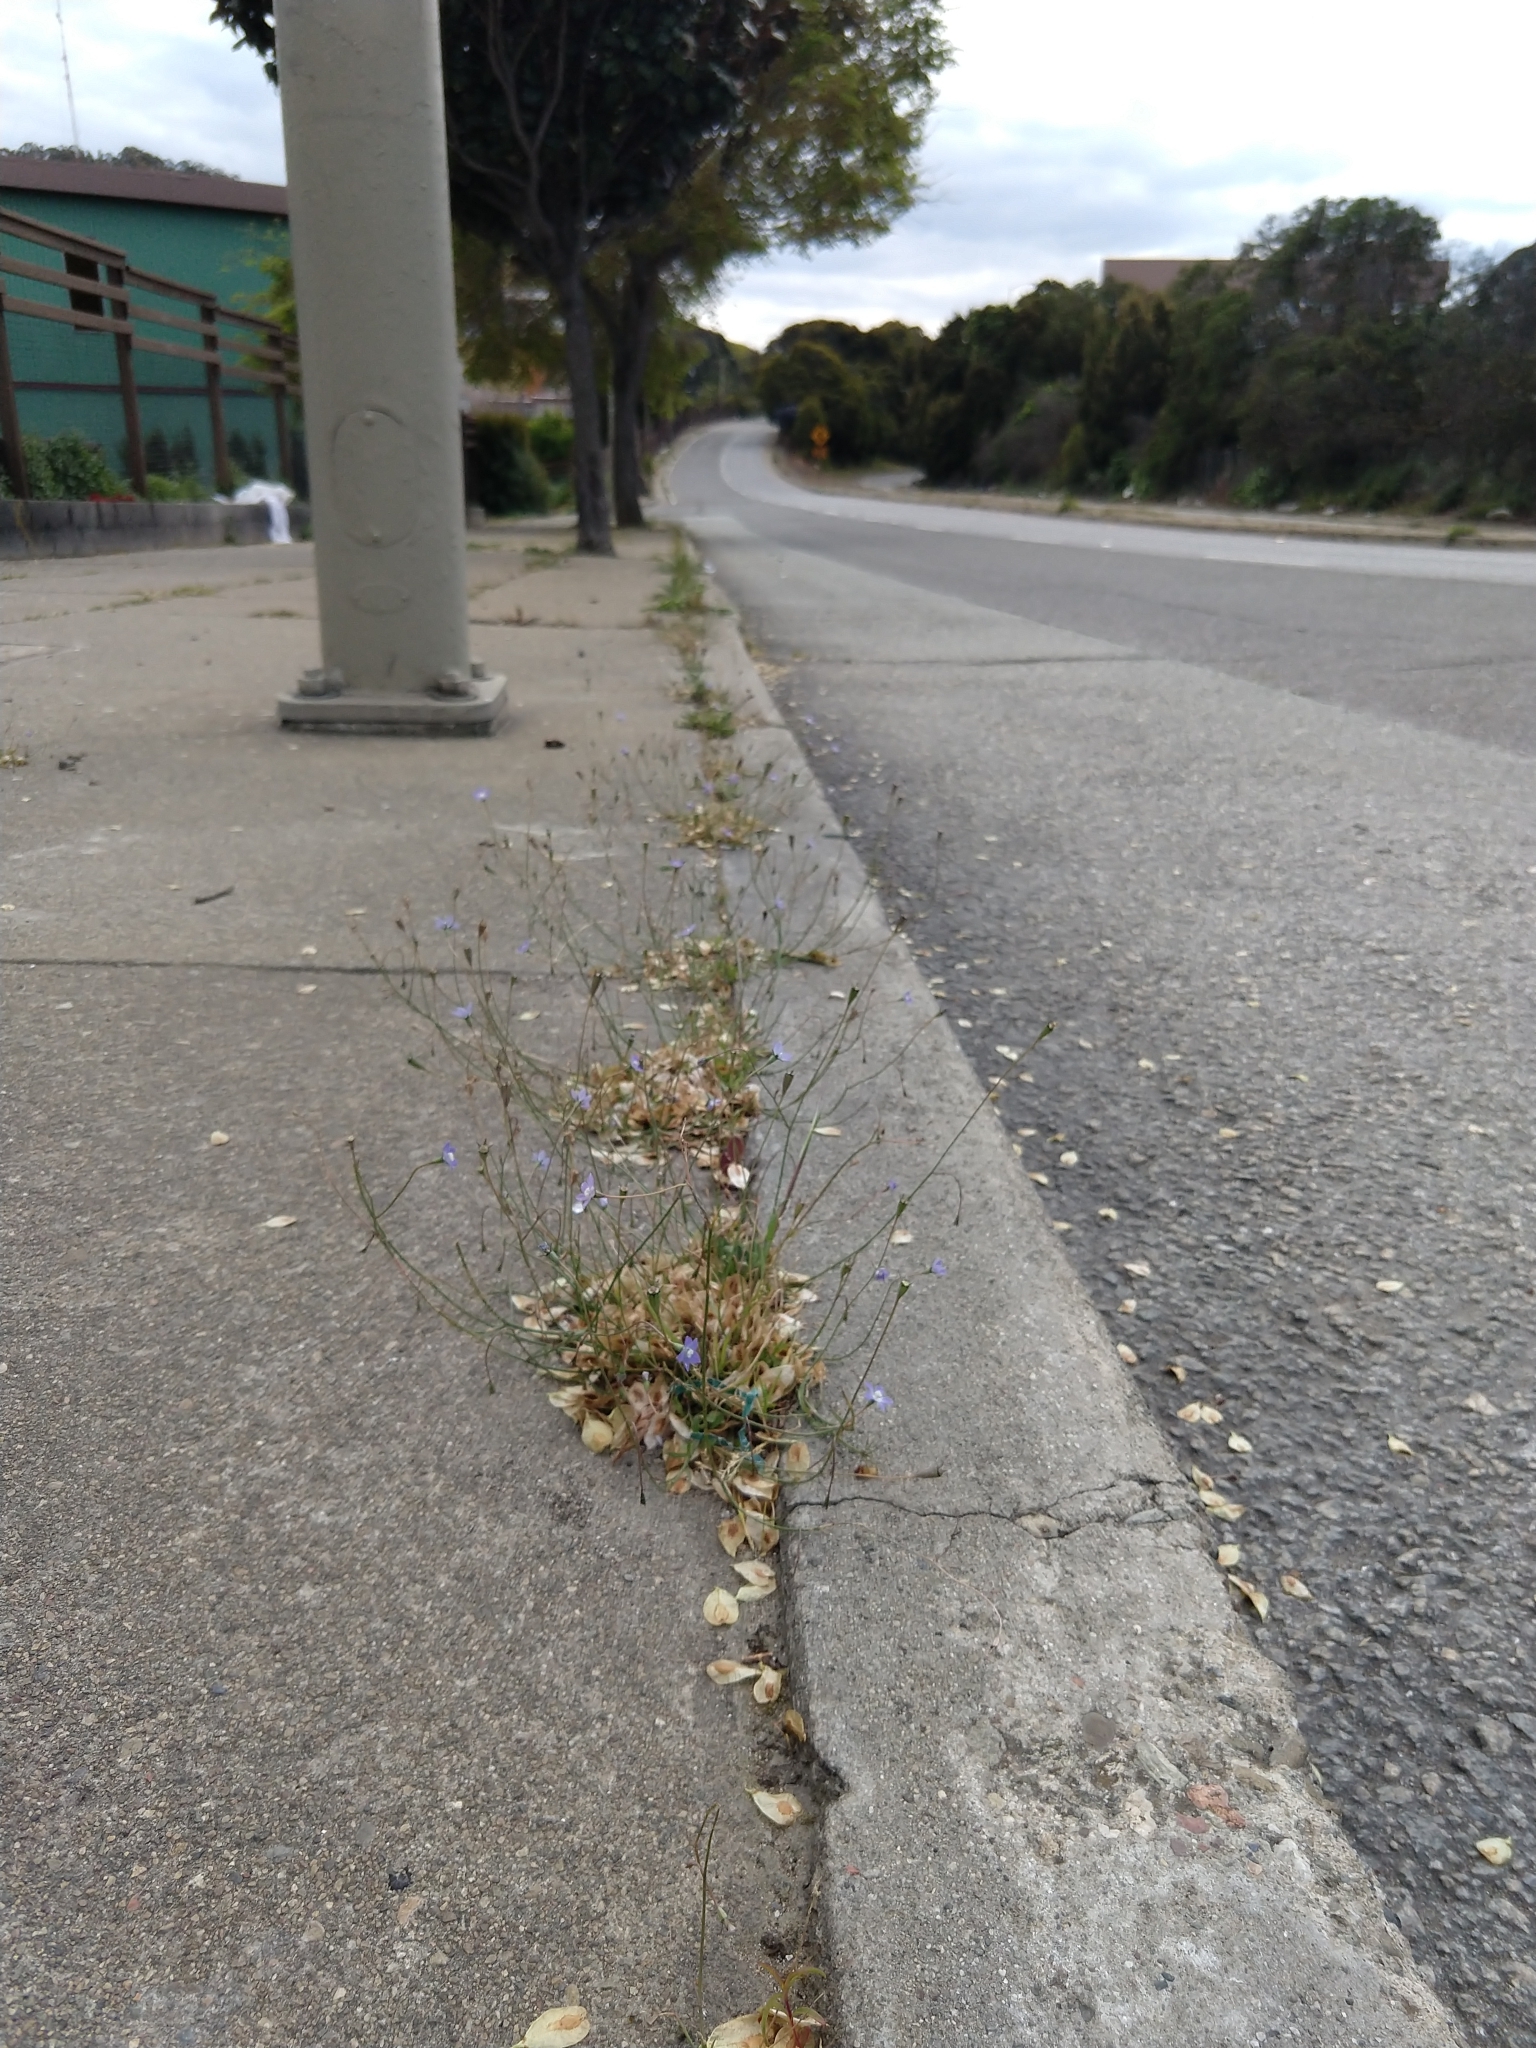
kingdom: Plantae
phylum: Tracheophyta
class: Magnoliopsida
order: Asterales
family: Campanulaceae
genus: Wahlenbergia
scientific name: Wahlenbergia marginata
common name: Southern rockbell
